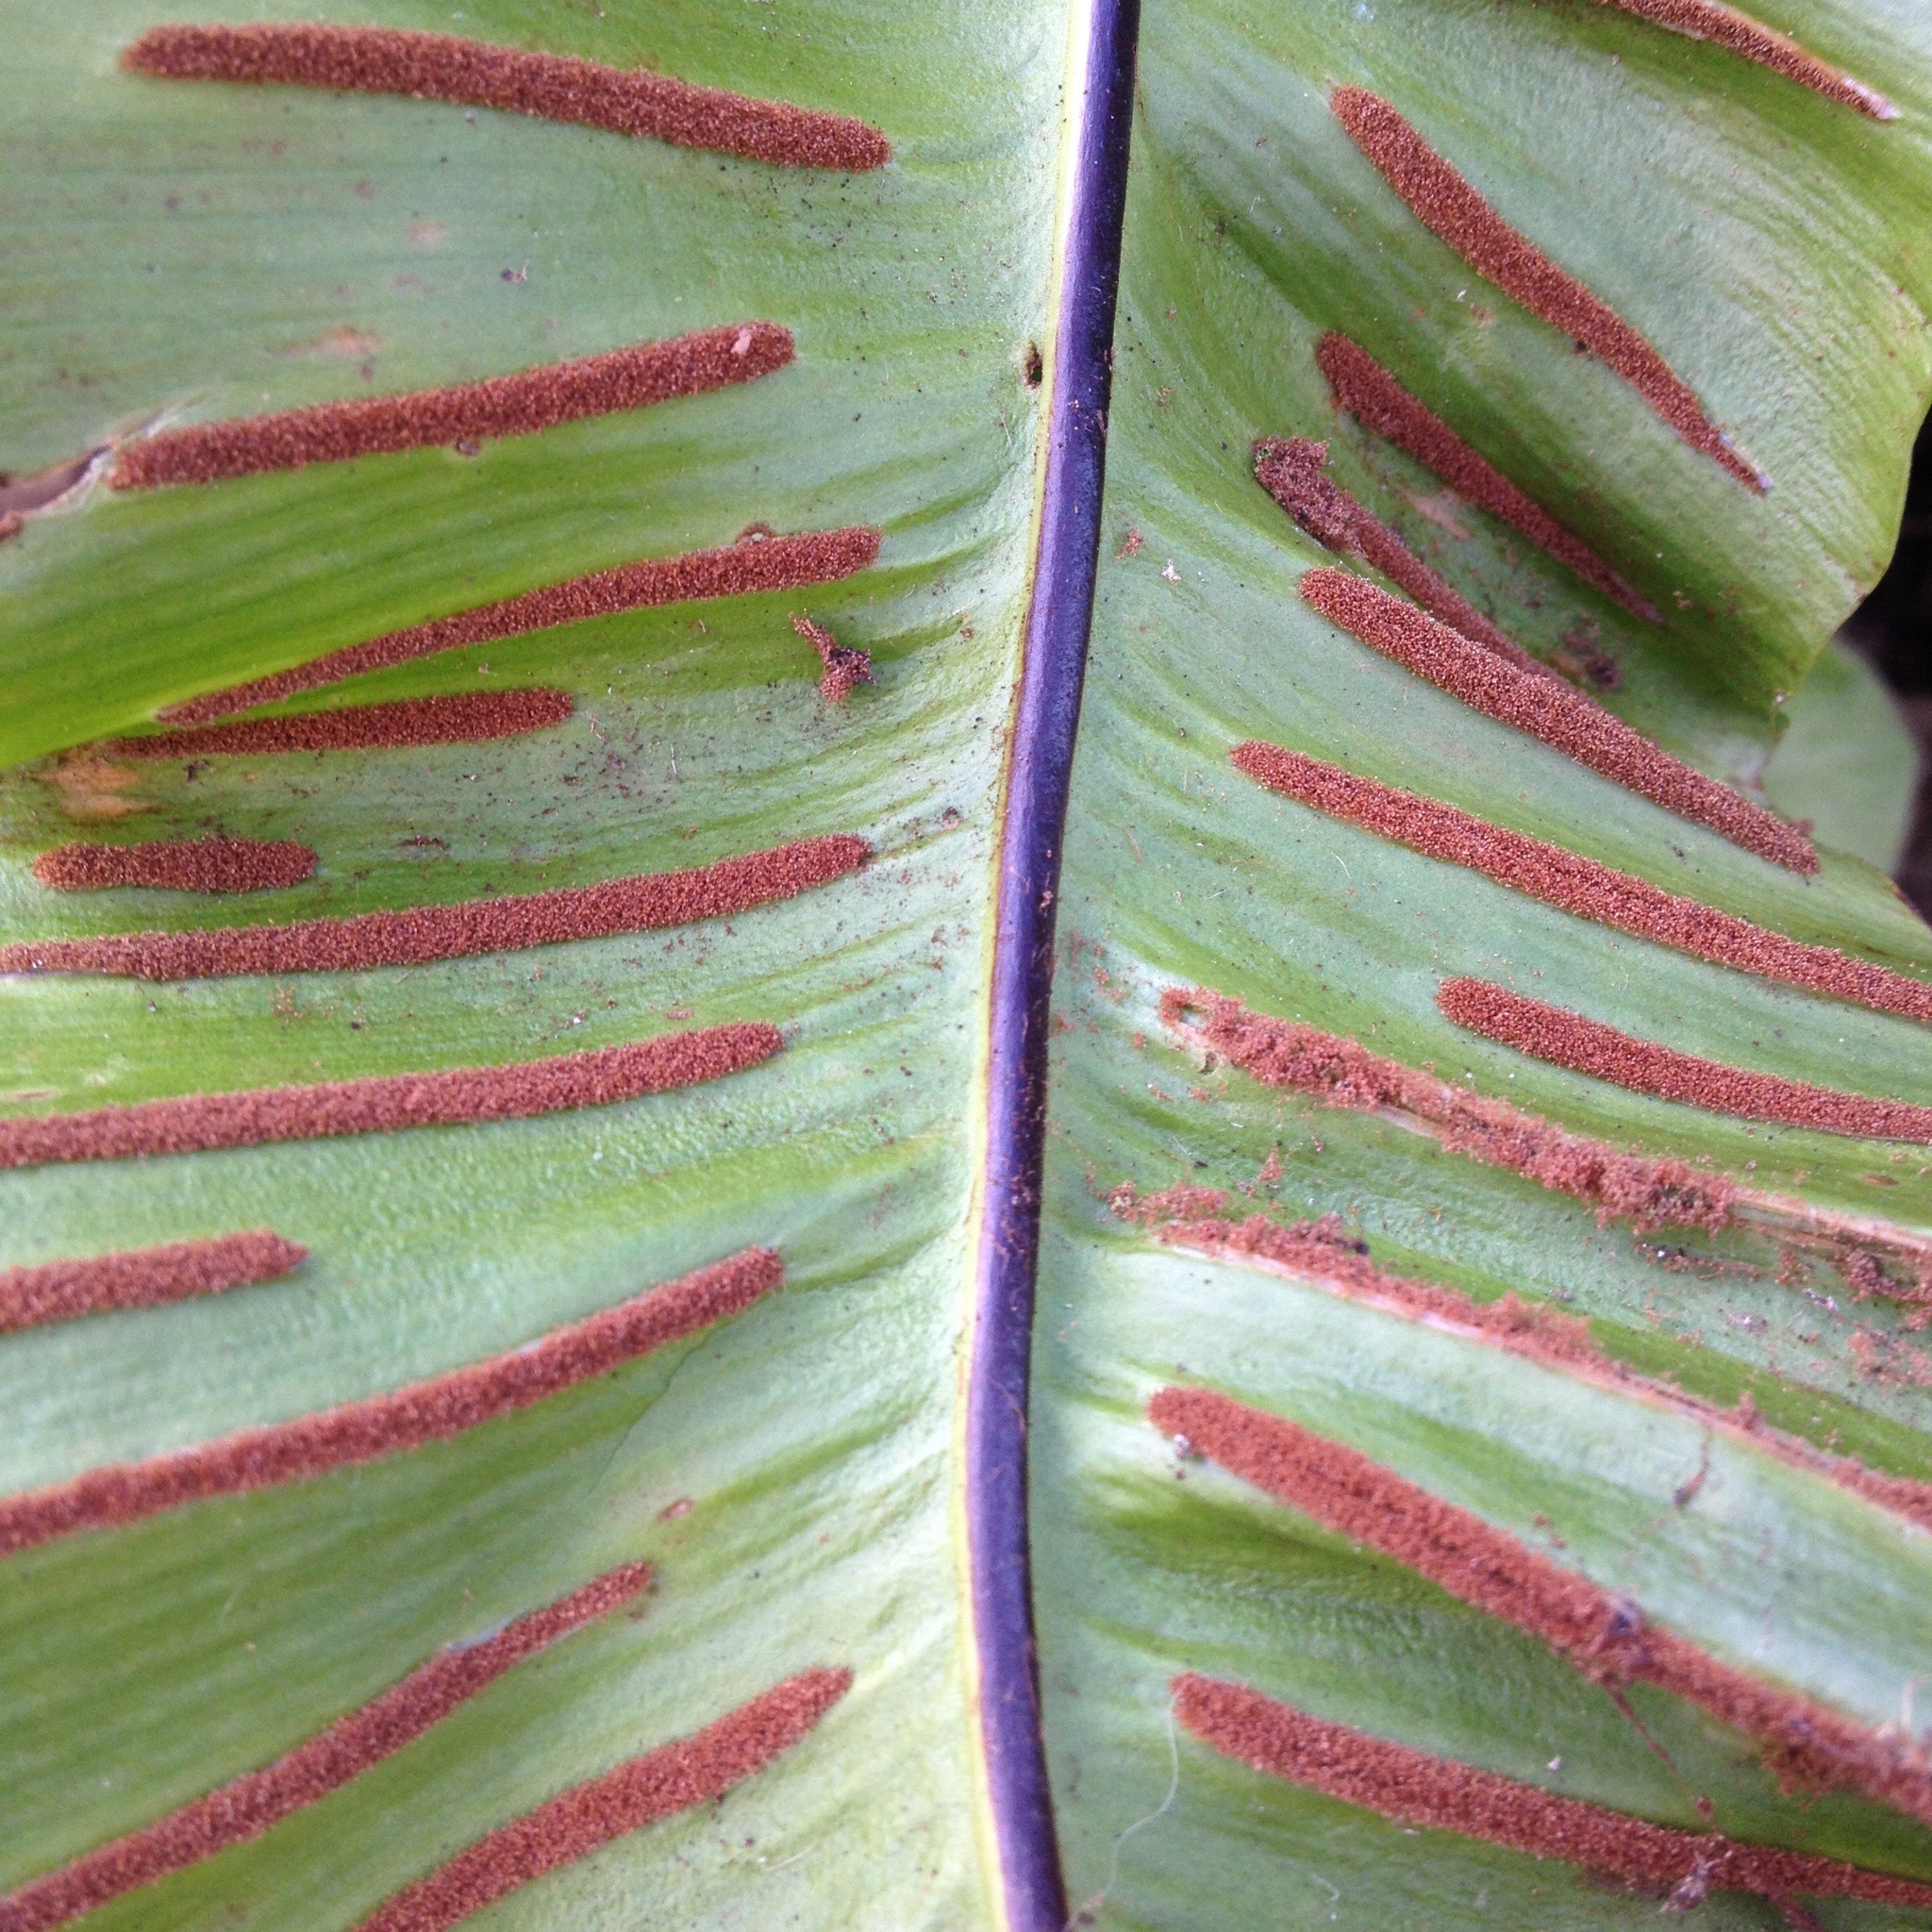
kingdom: Plantae
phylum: Tracheophyta
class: Polypodiopsida
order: Polypodiales
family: Aspleniaceae
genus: Asplenium
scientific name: Asplenium scolopendrium
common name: Hart's-tongue fern
